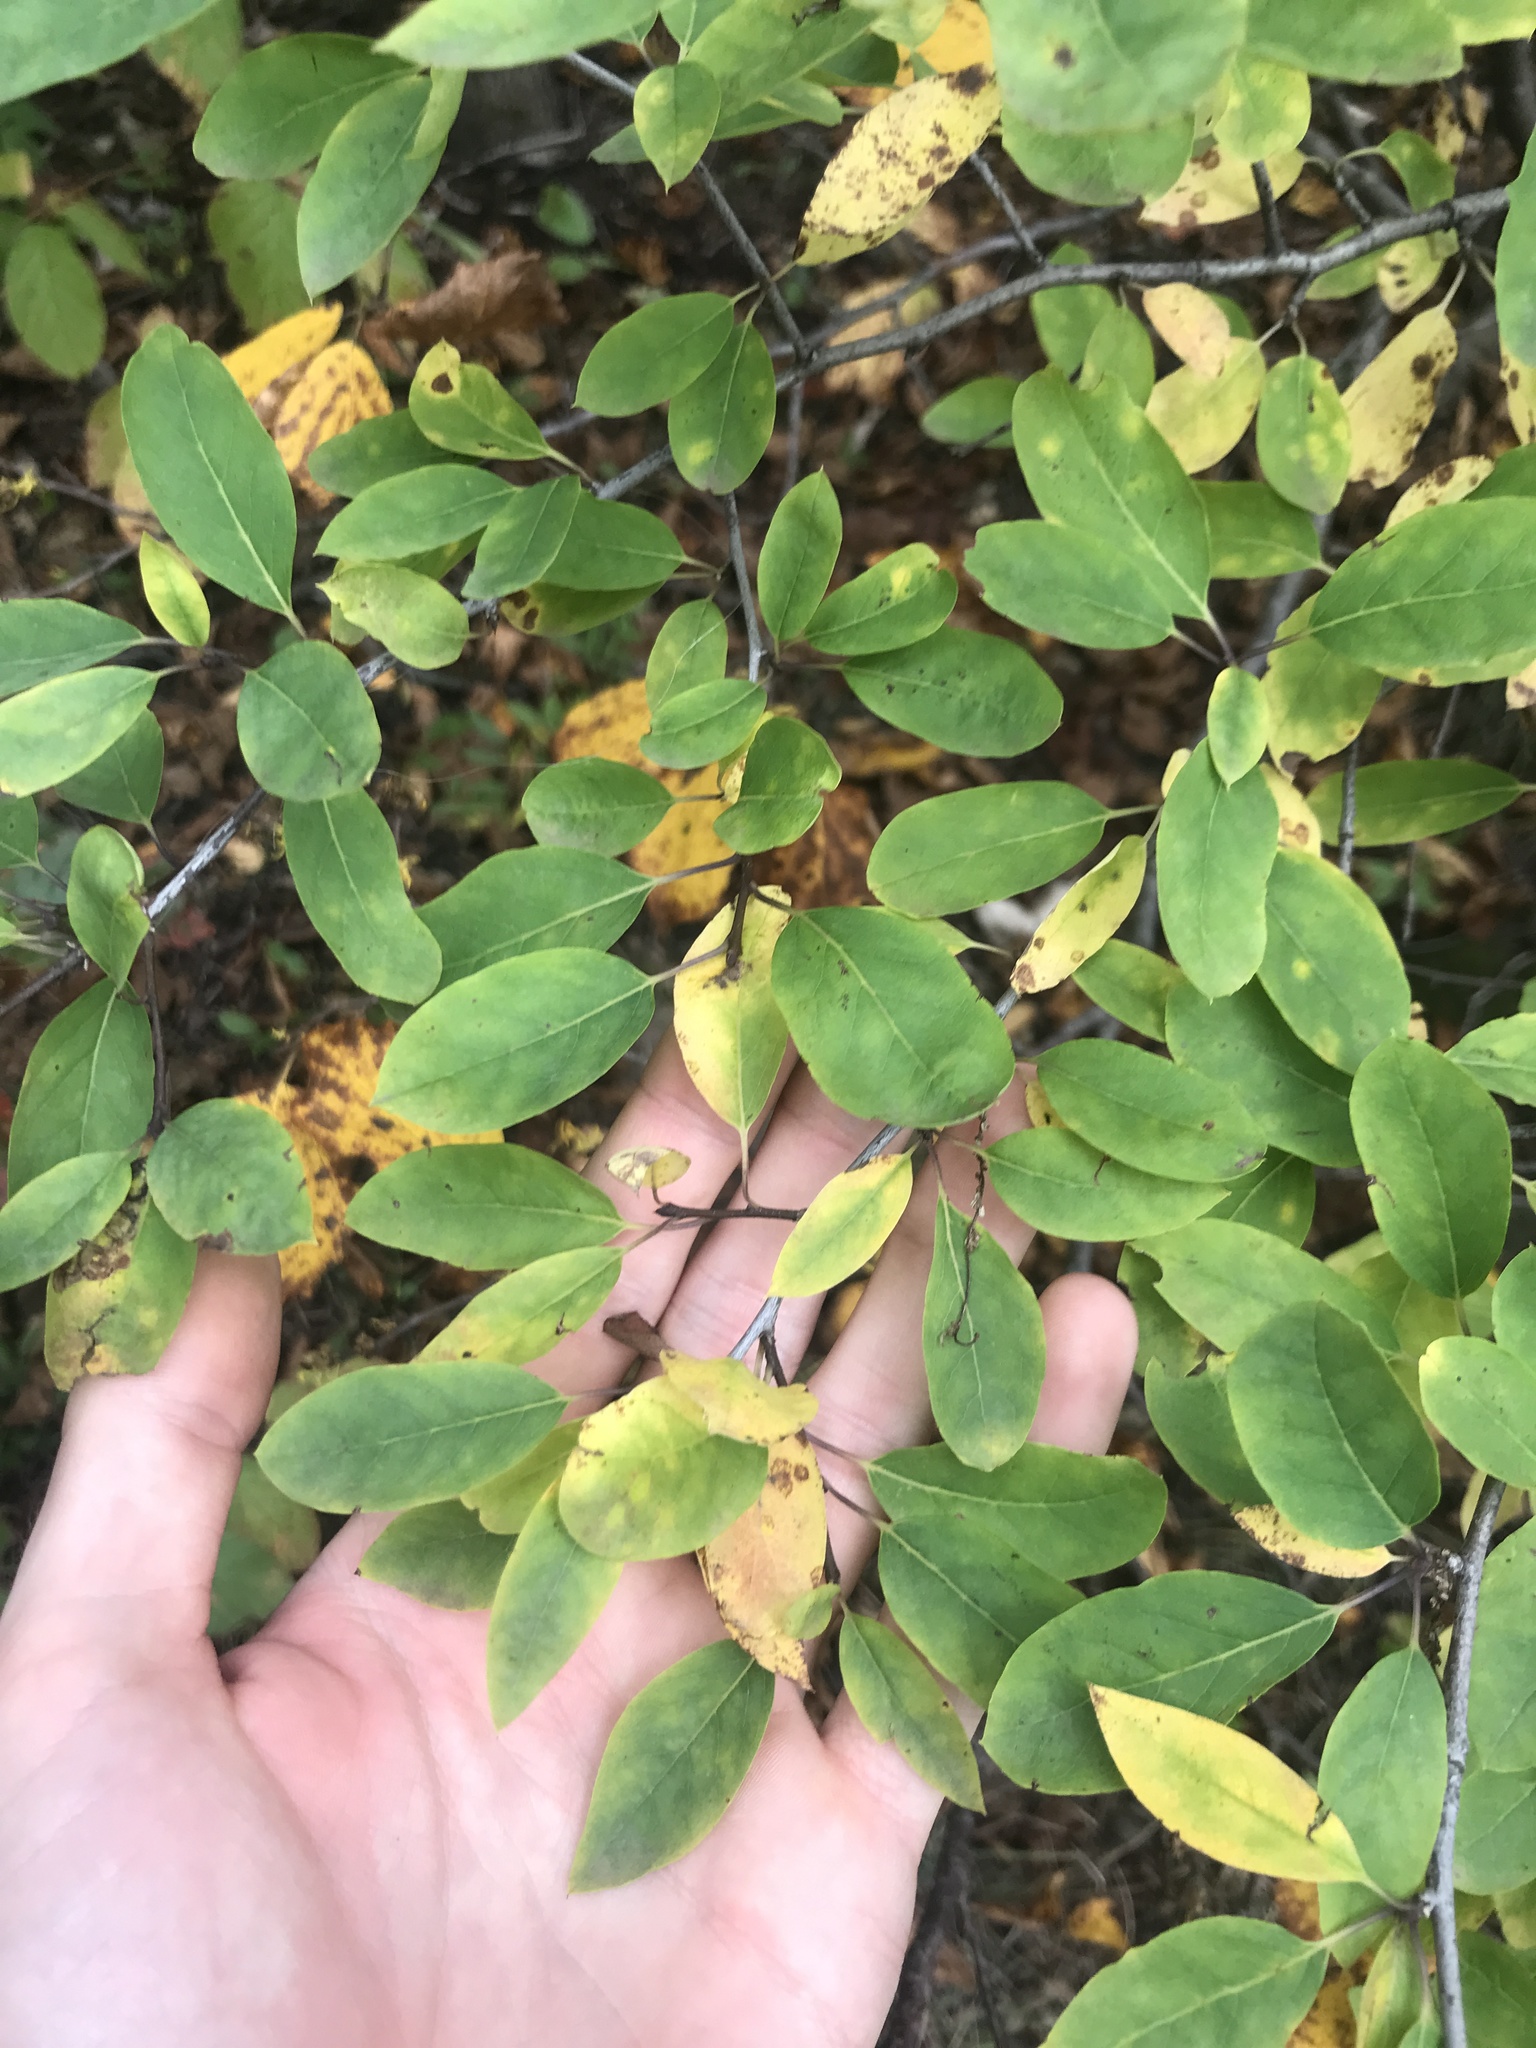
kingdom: Plantae
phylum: Tracheophyta
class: Magnoliopsida
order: Aquifoliales
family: Aquifoliaceae
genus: Ilex
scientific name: Ilex mucronata
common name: Catberry
